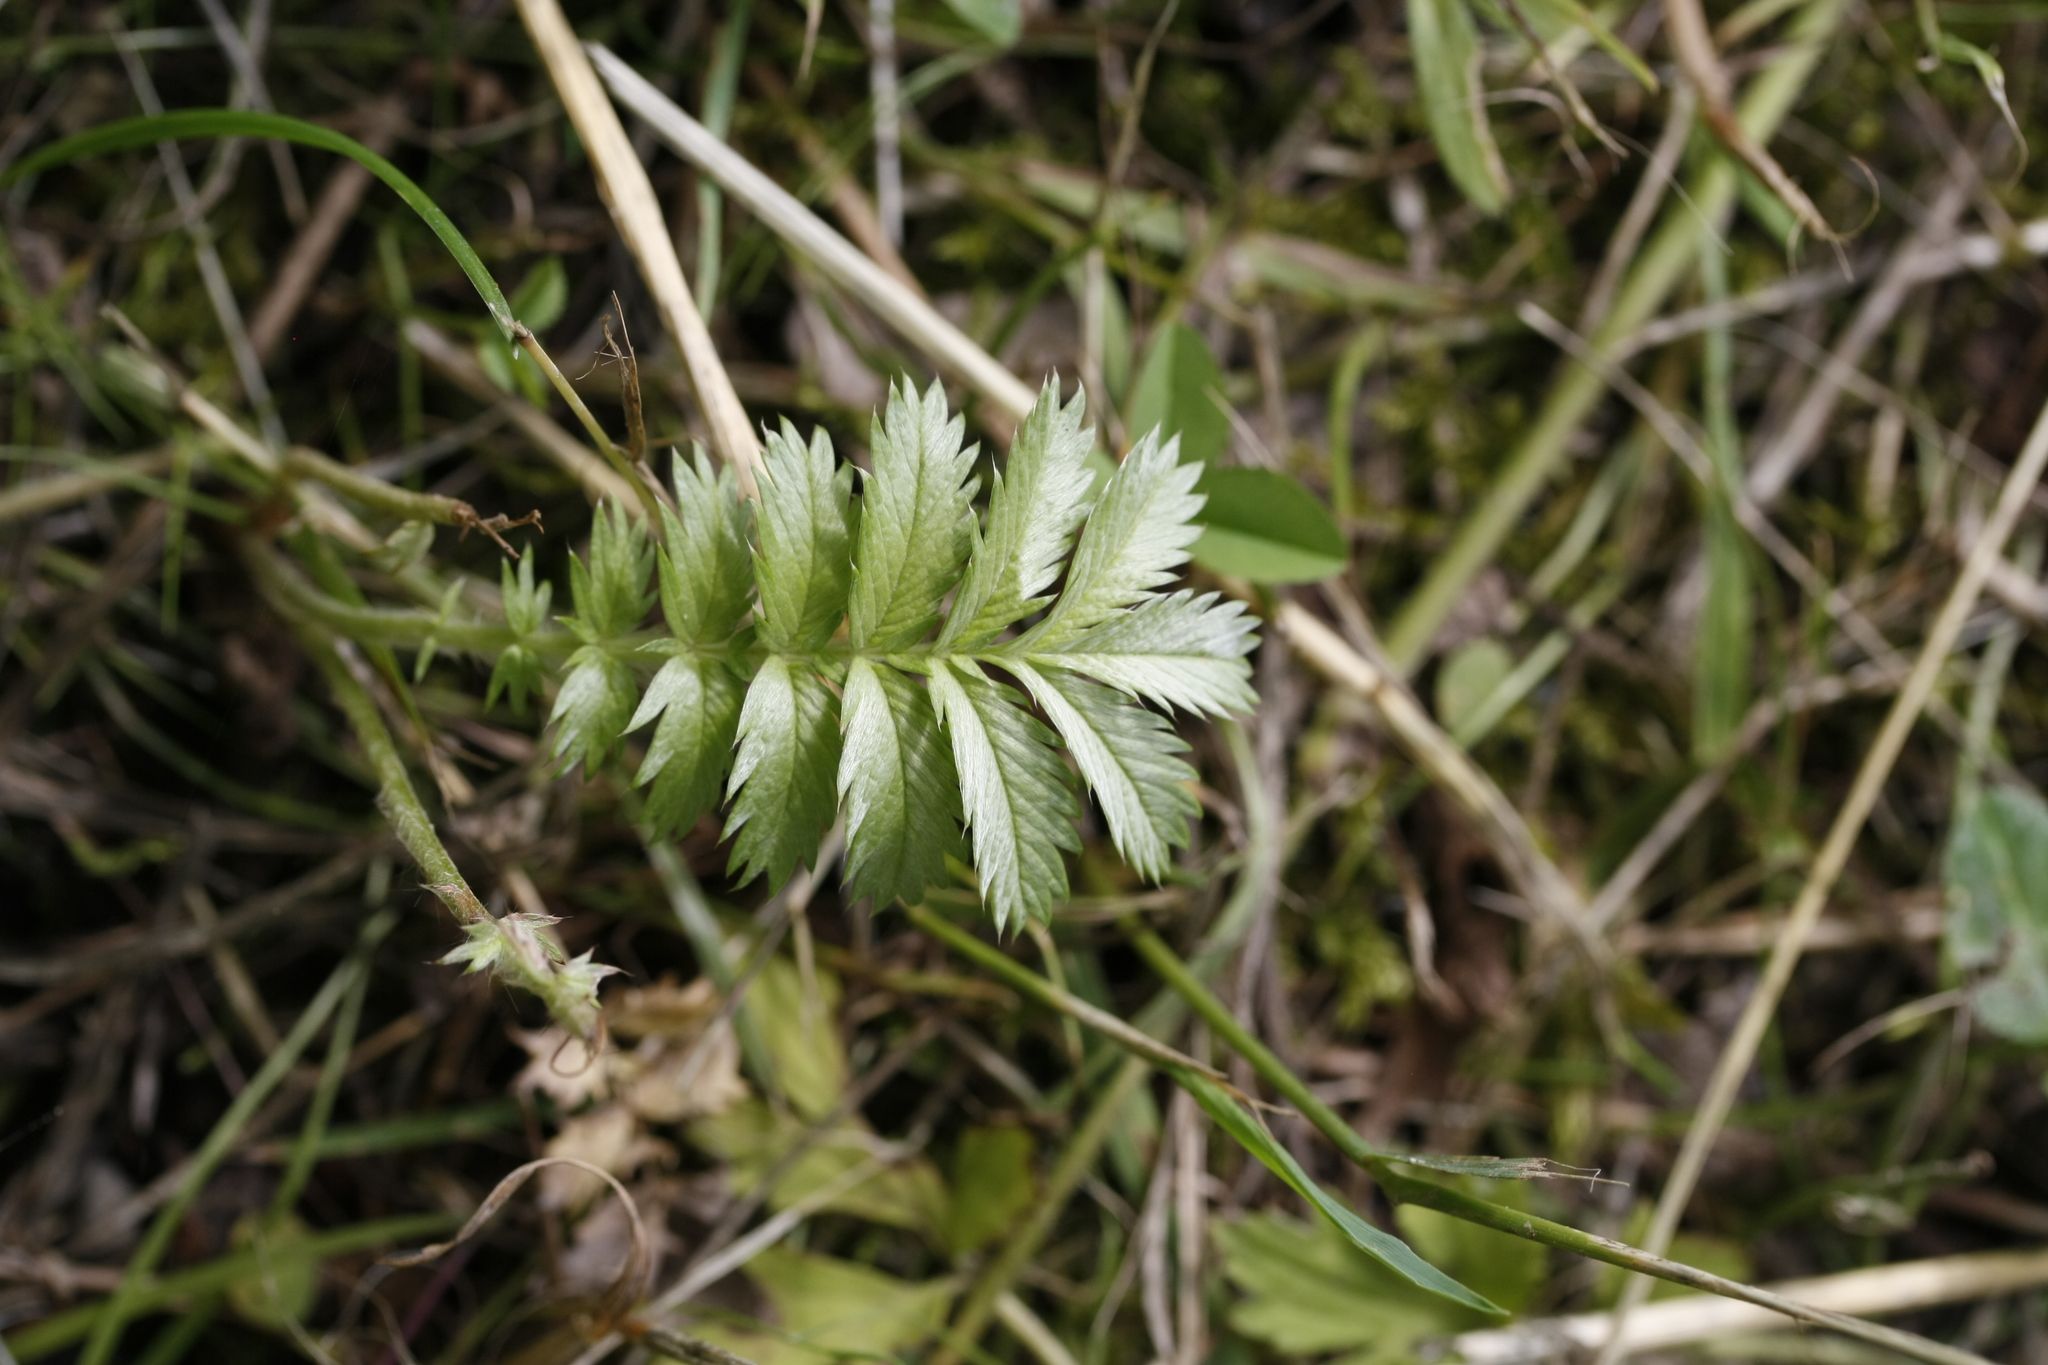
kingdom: Plantae
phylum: Tracheophyta
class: Magnoliopsida
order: Rosales
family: Rosaceae
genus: Argentina
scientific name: Argentina anserina
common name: Common silverweed
